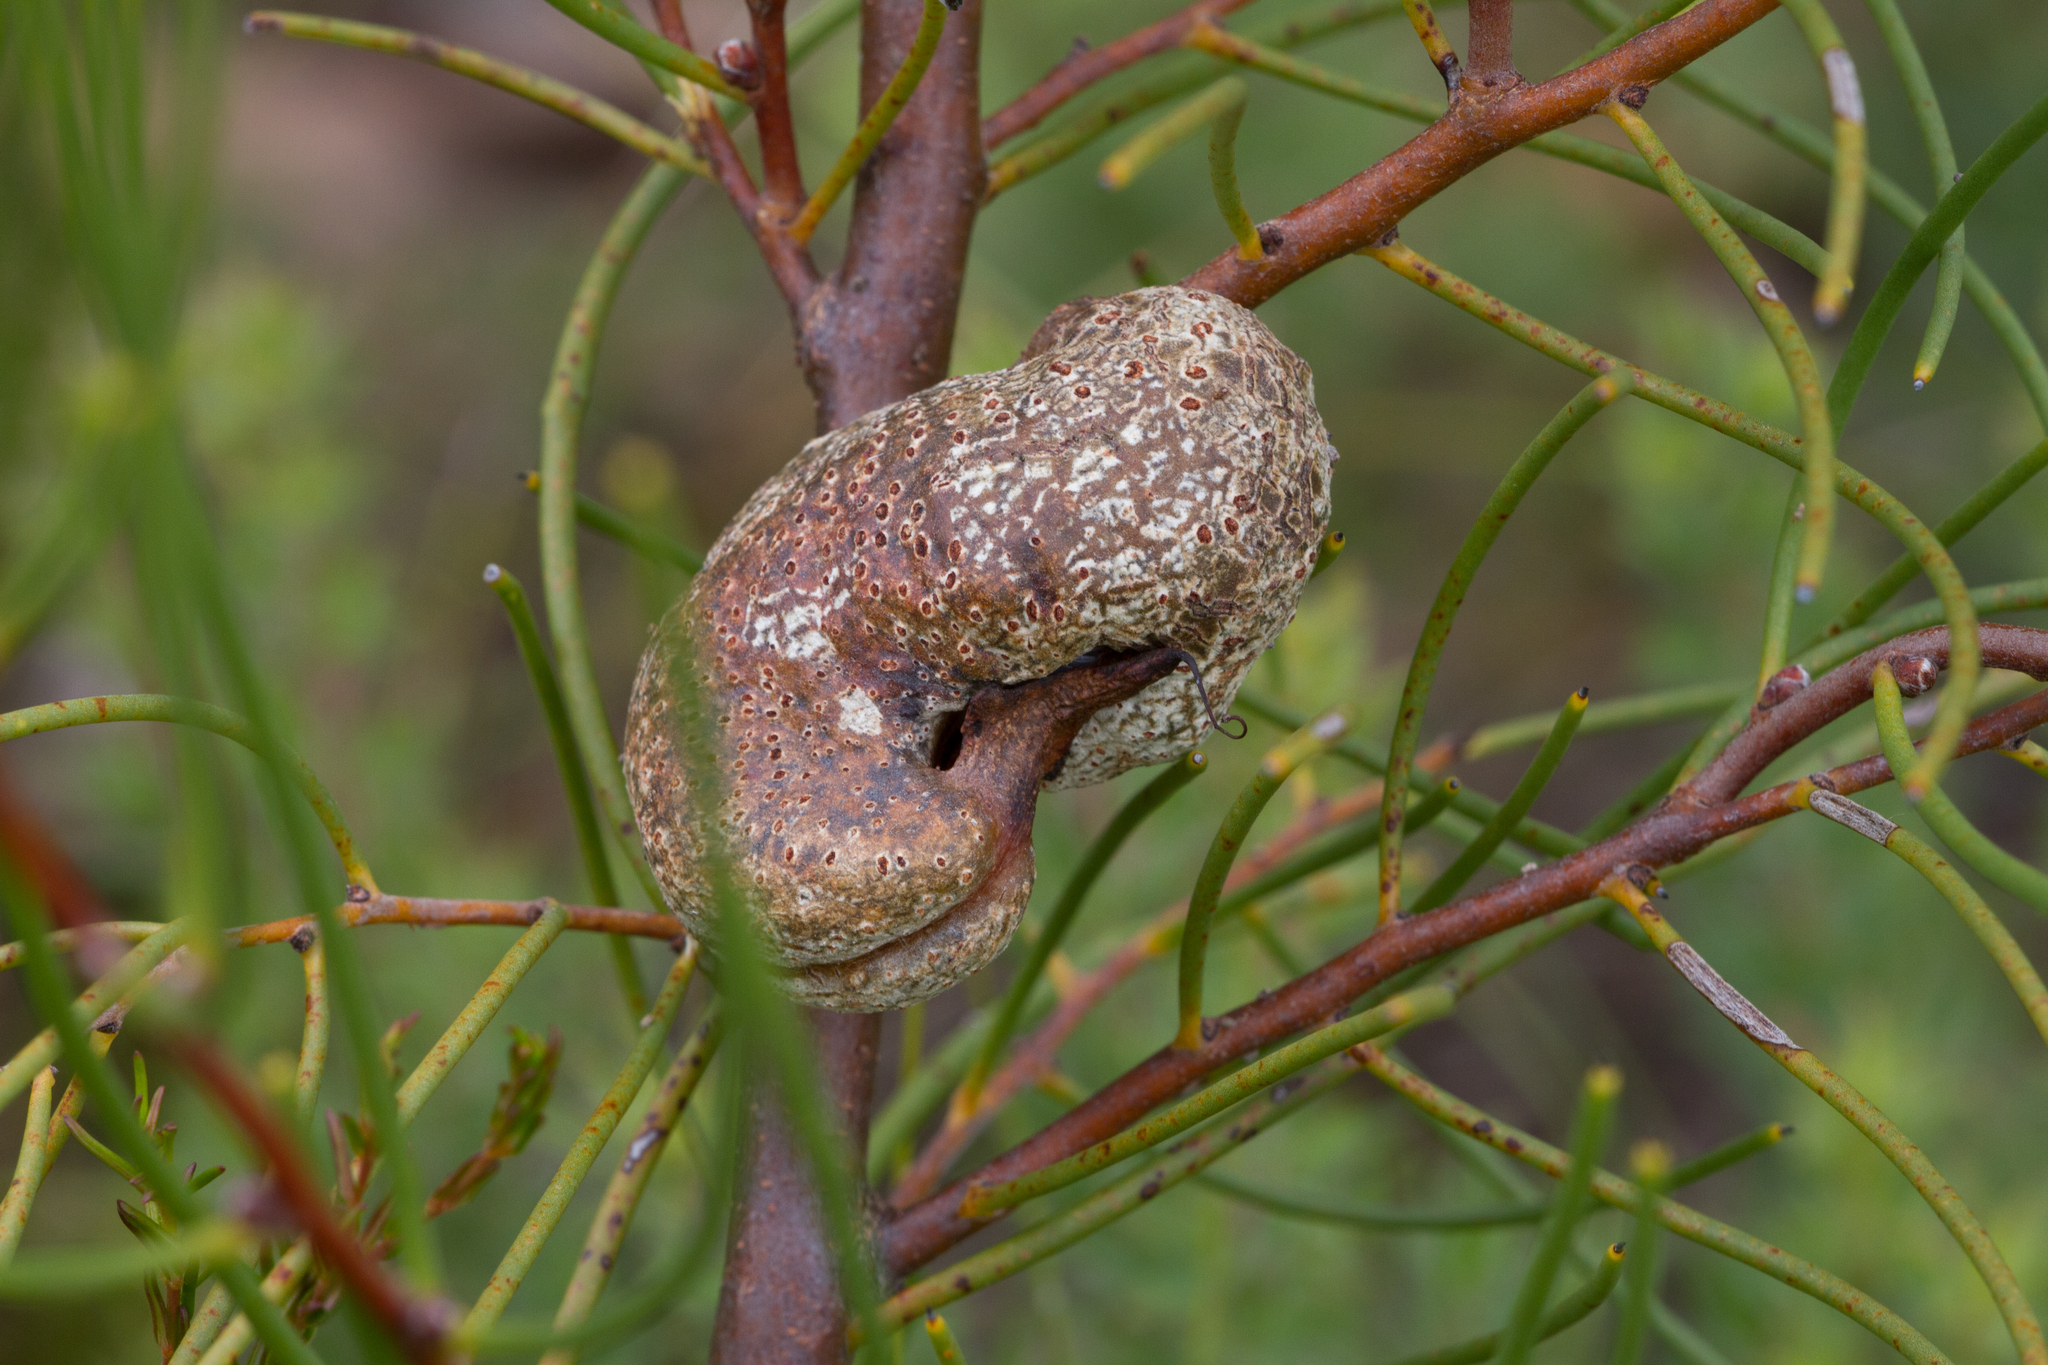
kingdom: Plantae
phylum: Tracheophyta
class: Magnoliopsida
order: Proteales
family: Proteaceae
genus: Hakea
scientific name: Hakea rostrata
